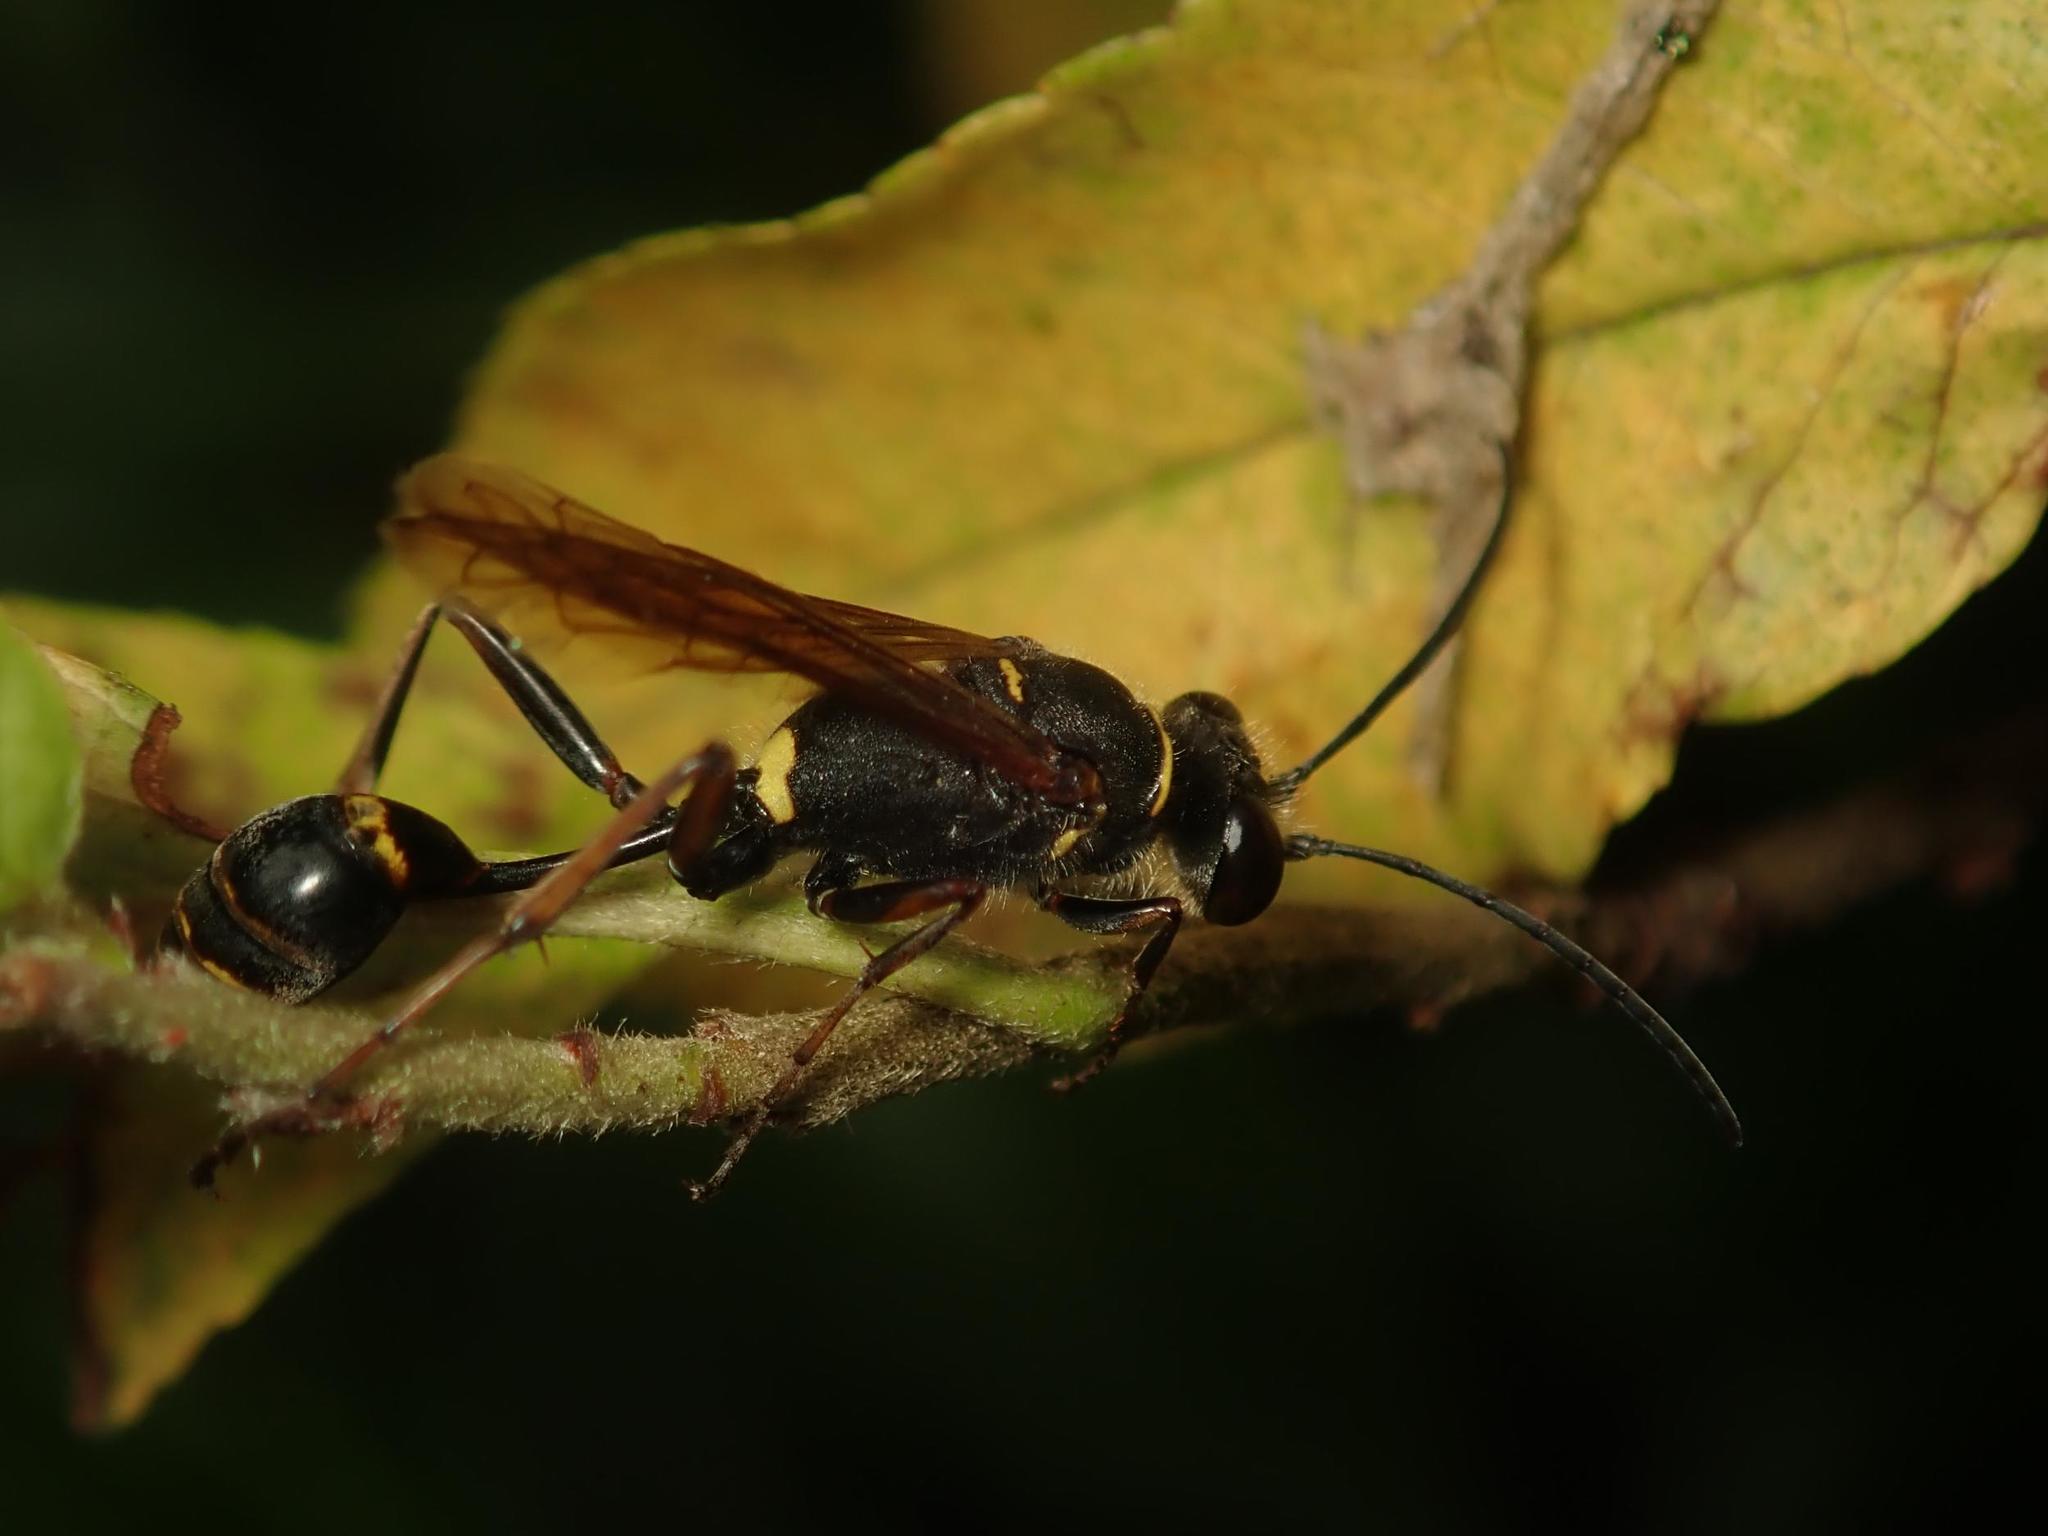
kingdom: Animalia
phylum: Arthropoda
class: Insecta
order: Hymenoptera
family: Sphecidae
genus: Sceliphron
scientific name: Sceliphron curvatum
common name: Pèlopèe
